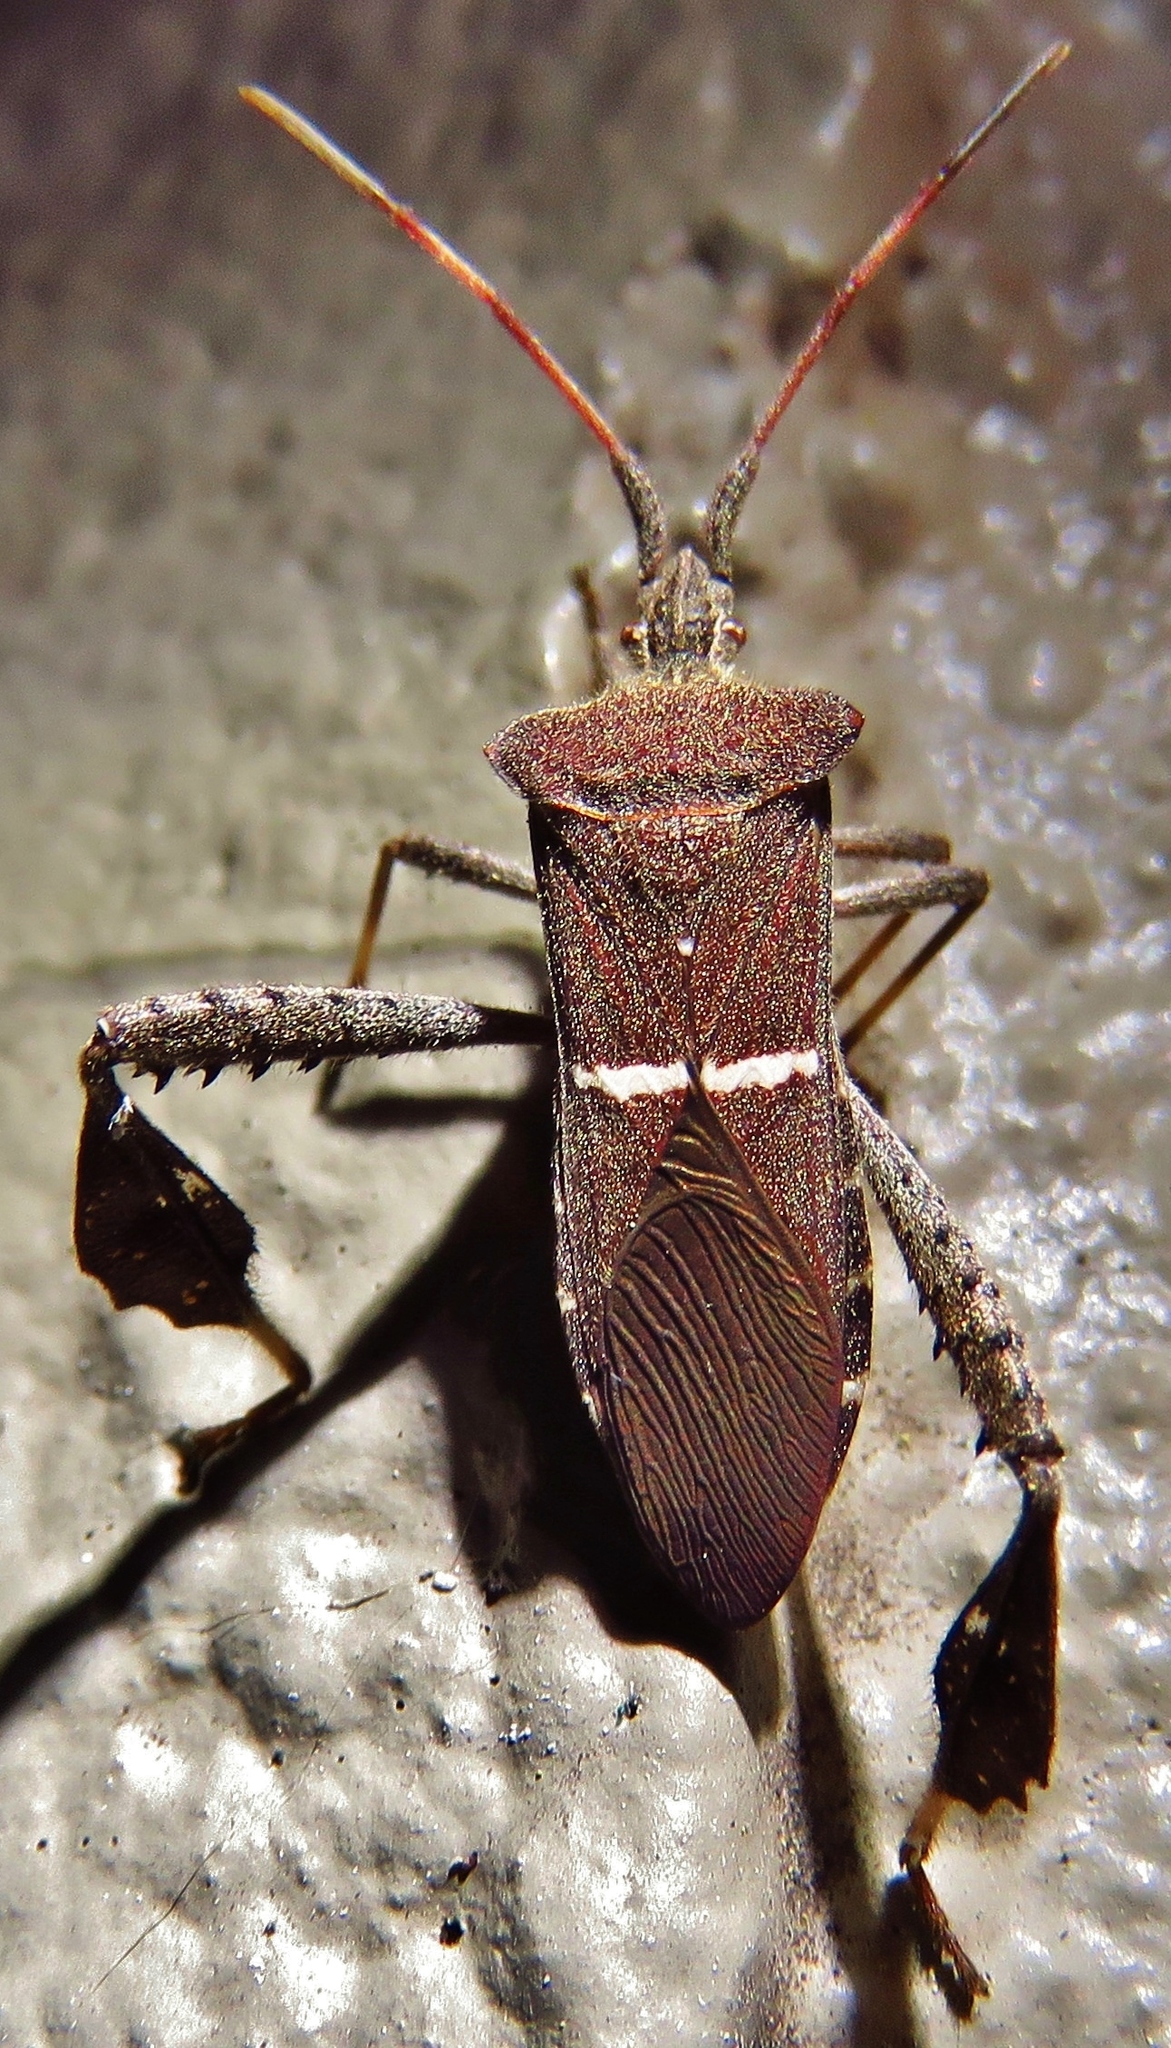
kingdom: Animalia
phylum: Arthropoda
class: Insecta
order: Hemiptera
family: Coreidae
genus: Leptoglossus
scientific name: Leptoglossus phyllopus
